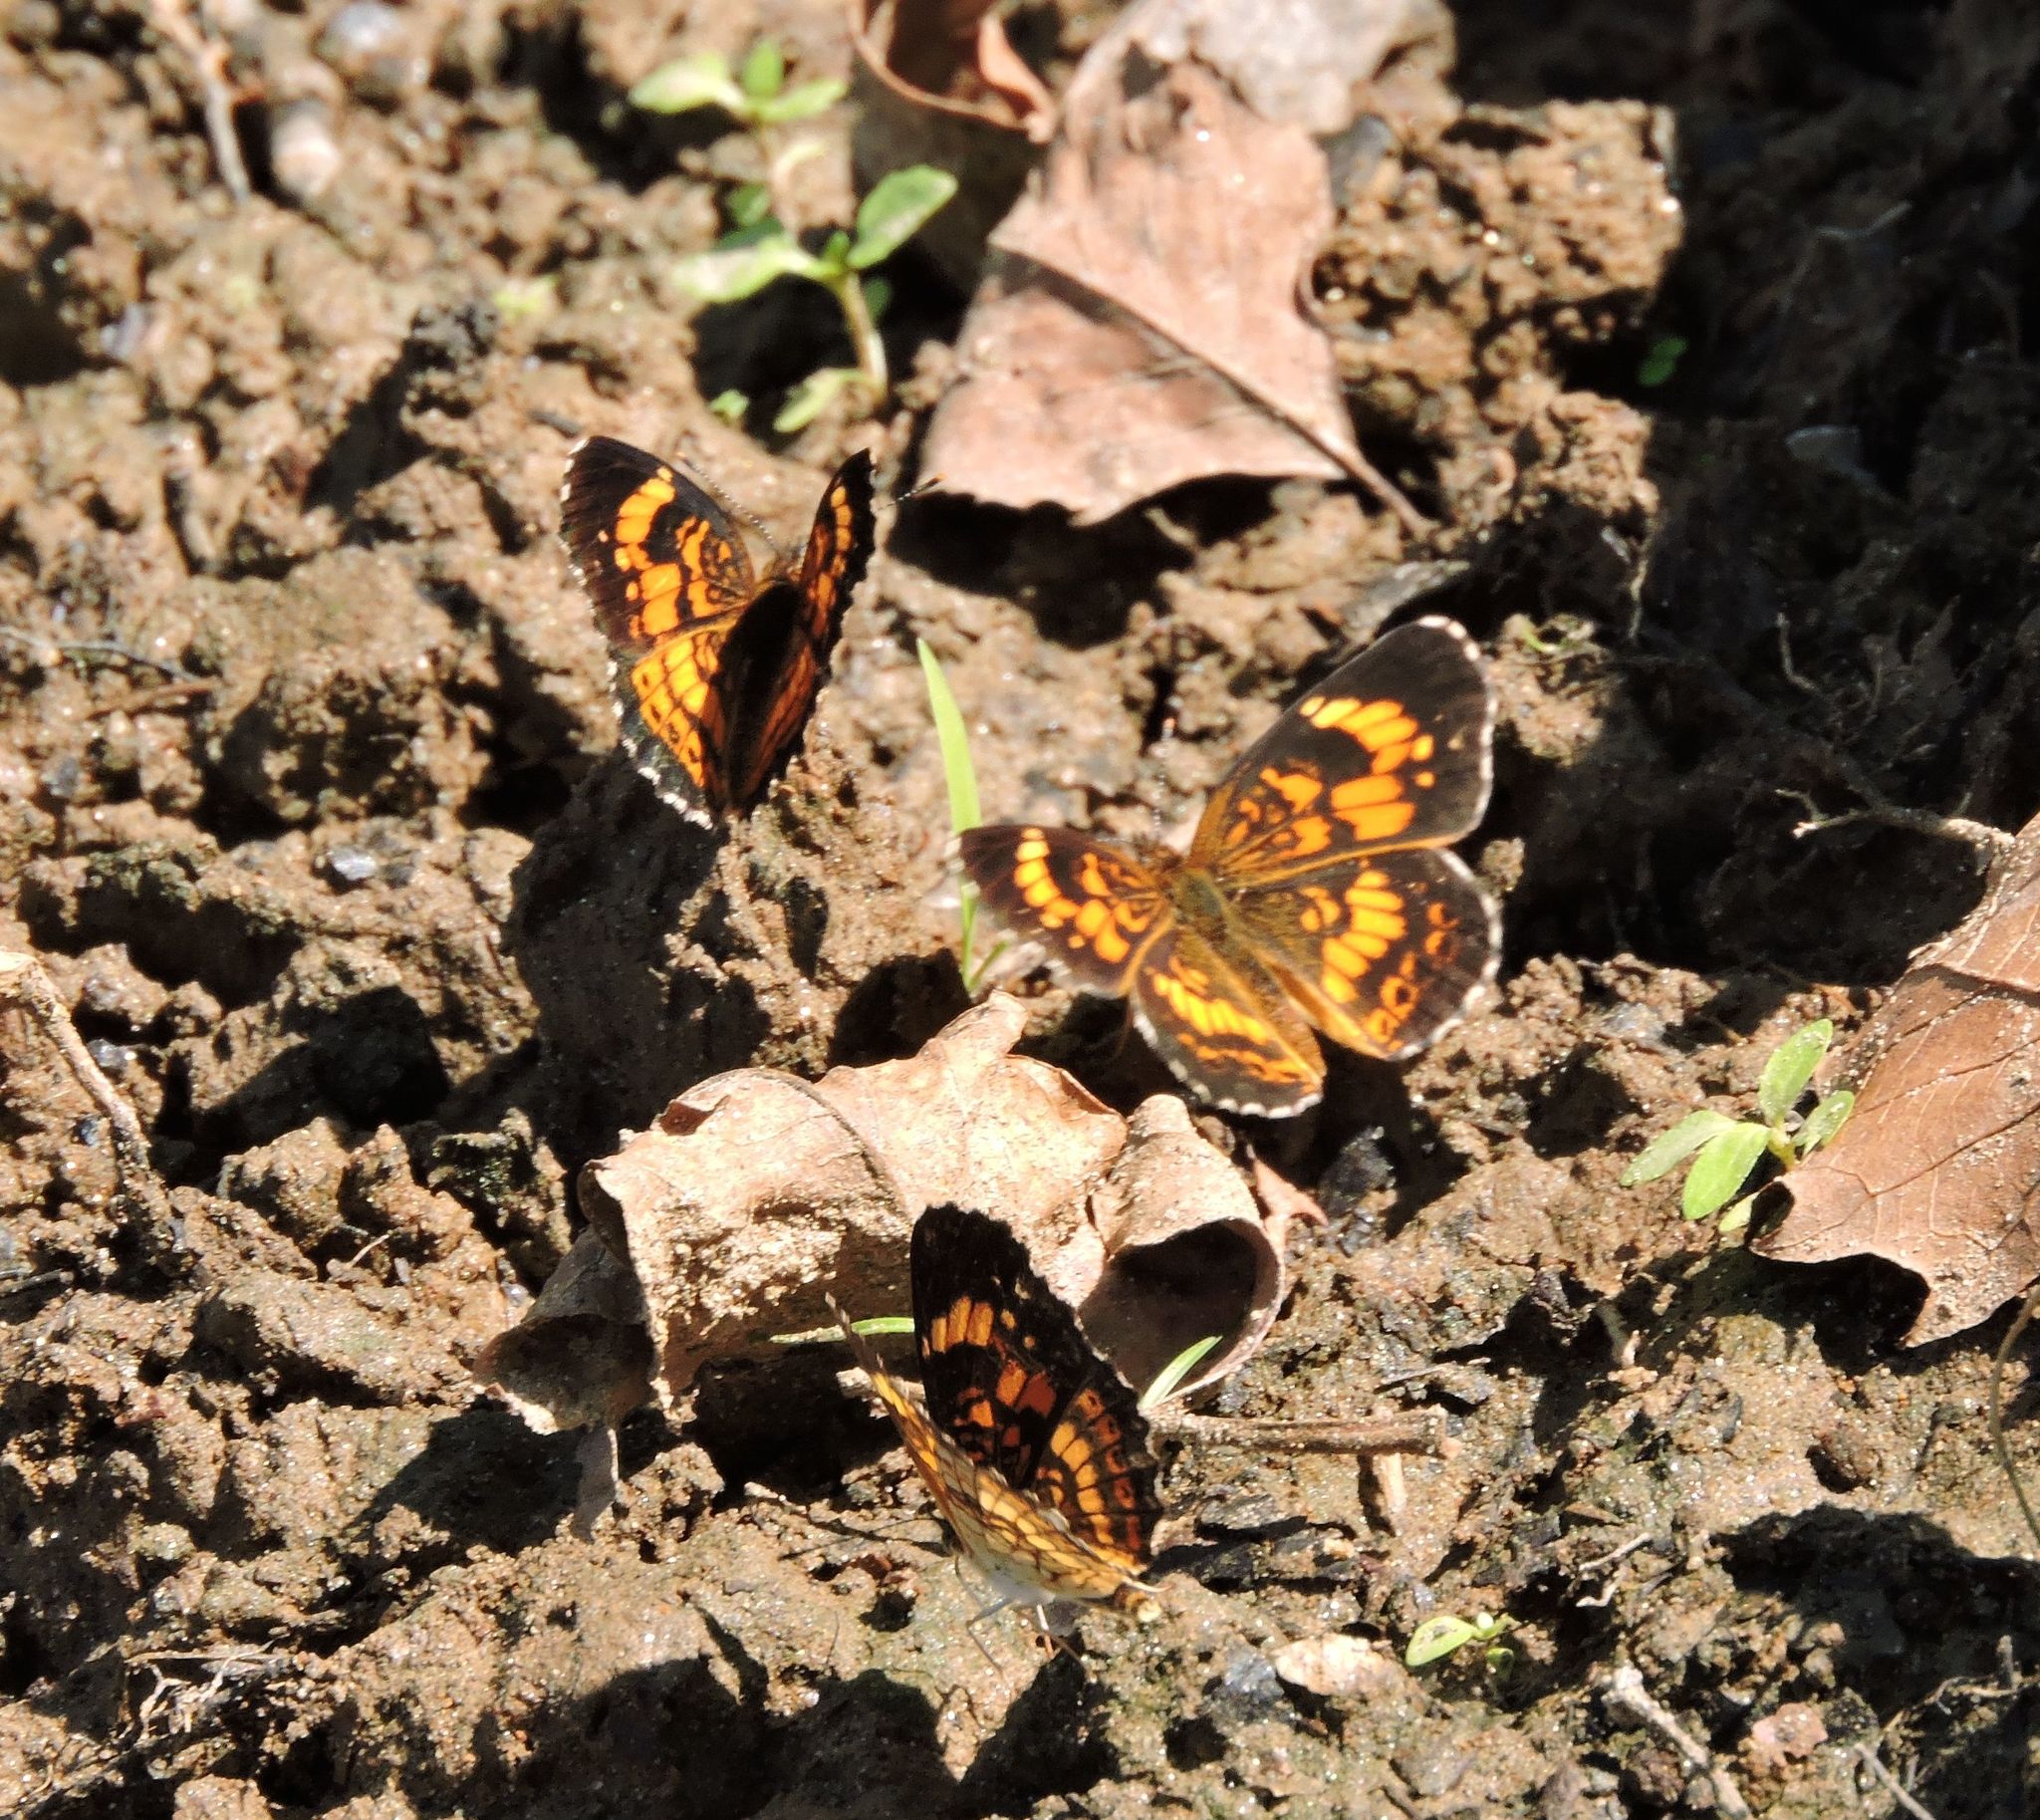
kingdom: Animalia
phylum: Arthropoda
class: Insecta
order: Lepidoptera
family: Nymphalidae
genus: Chlosyne
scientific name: Chlosyne nycteis
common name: Silvery checkerspot
